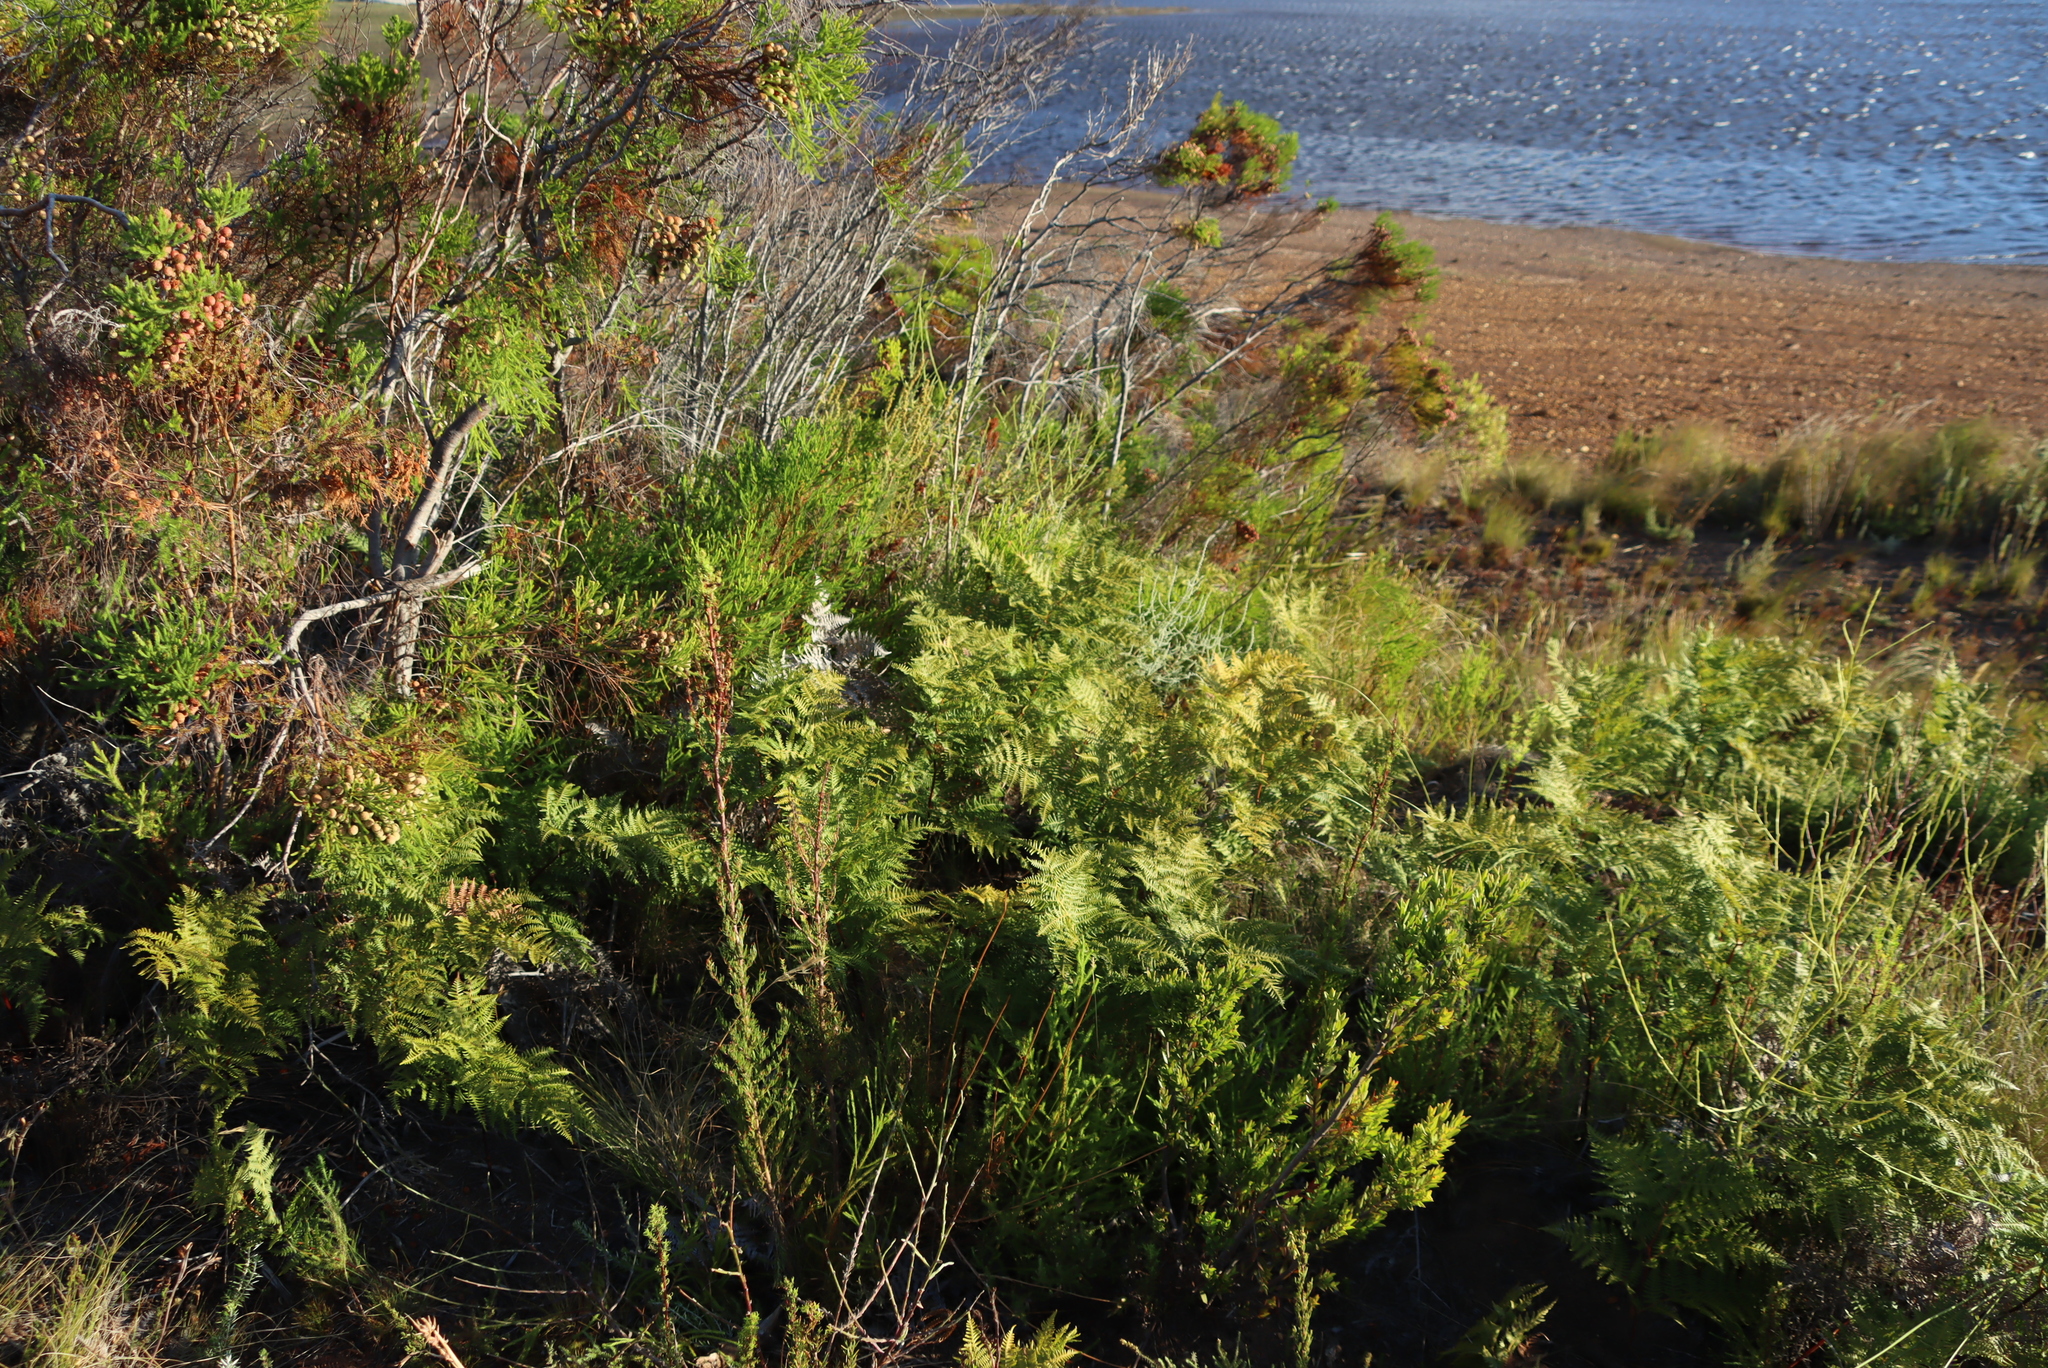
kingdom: Plantae
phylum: Tracheophyta
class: Polypodiopsida
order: Polypodiales
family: Dennstaedtiaceae
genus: Pteridium
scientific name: Pteridium aquilinum
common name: Bracken
